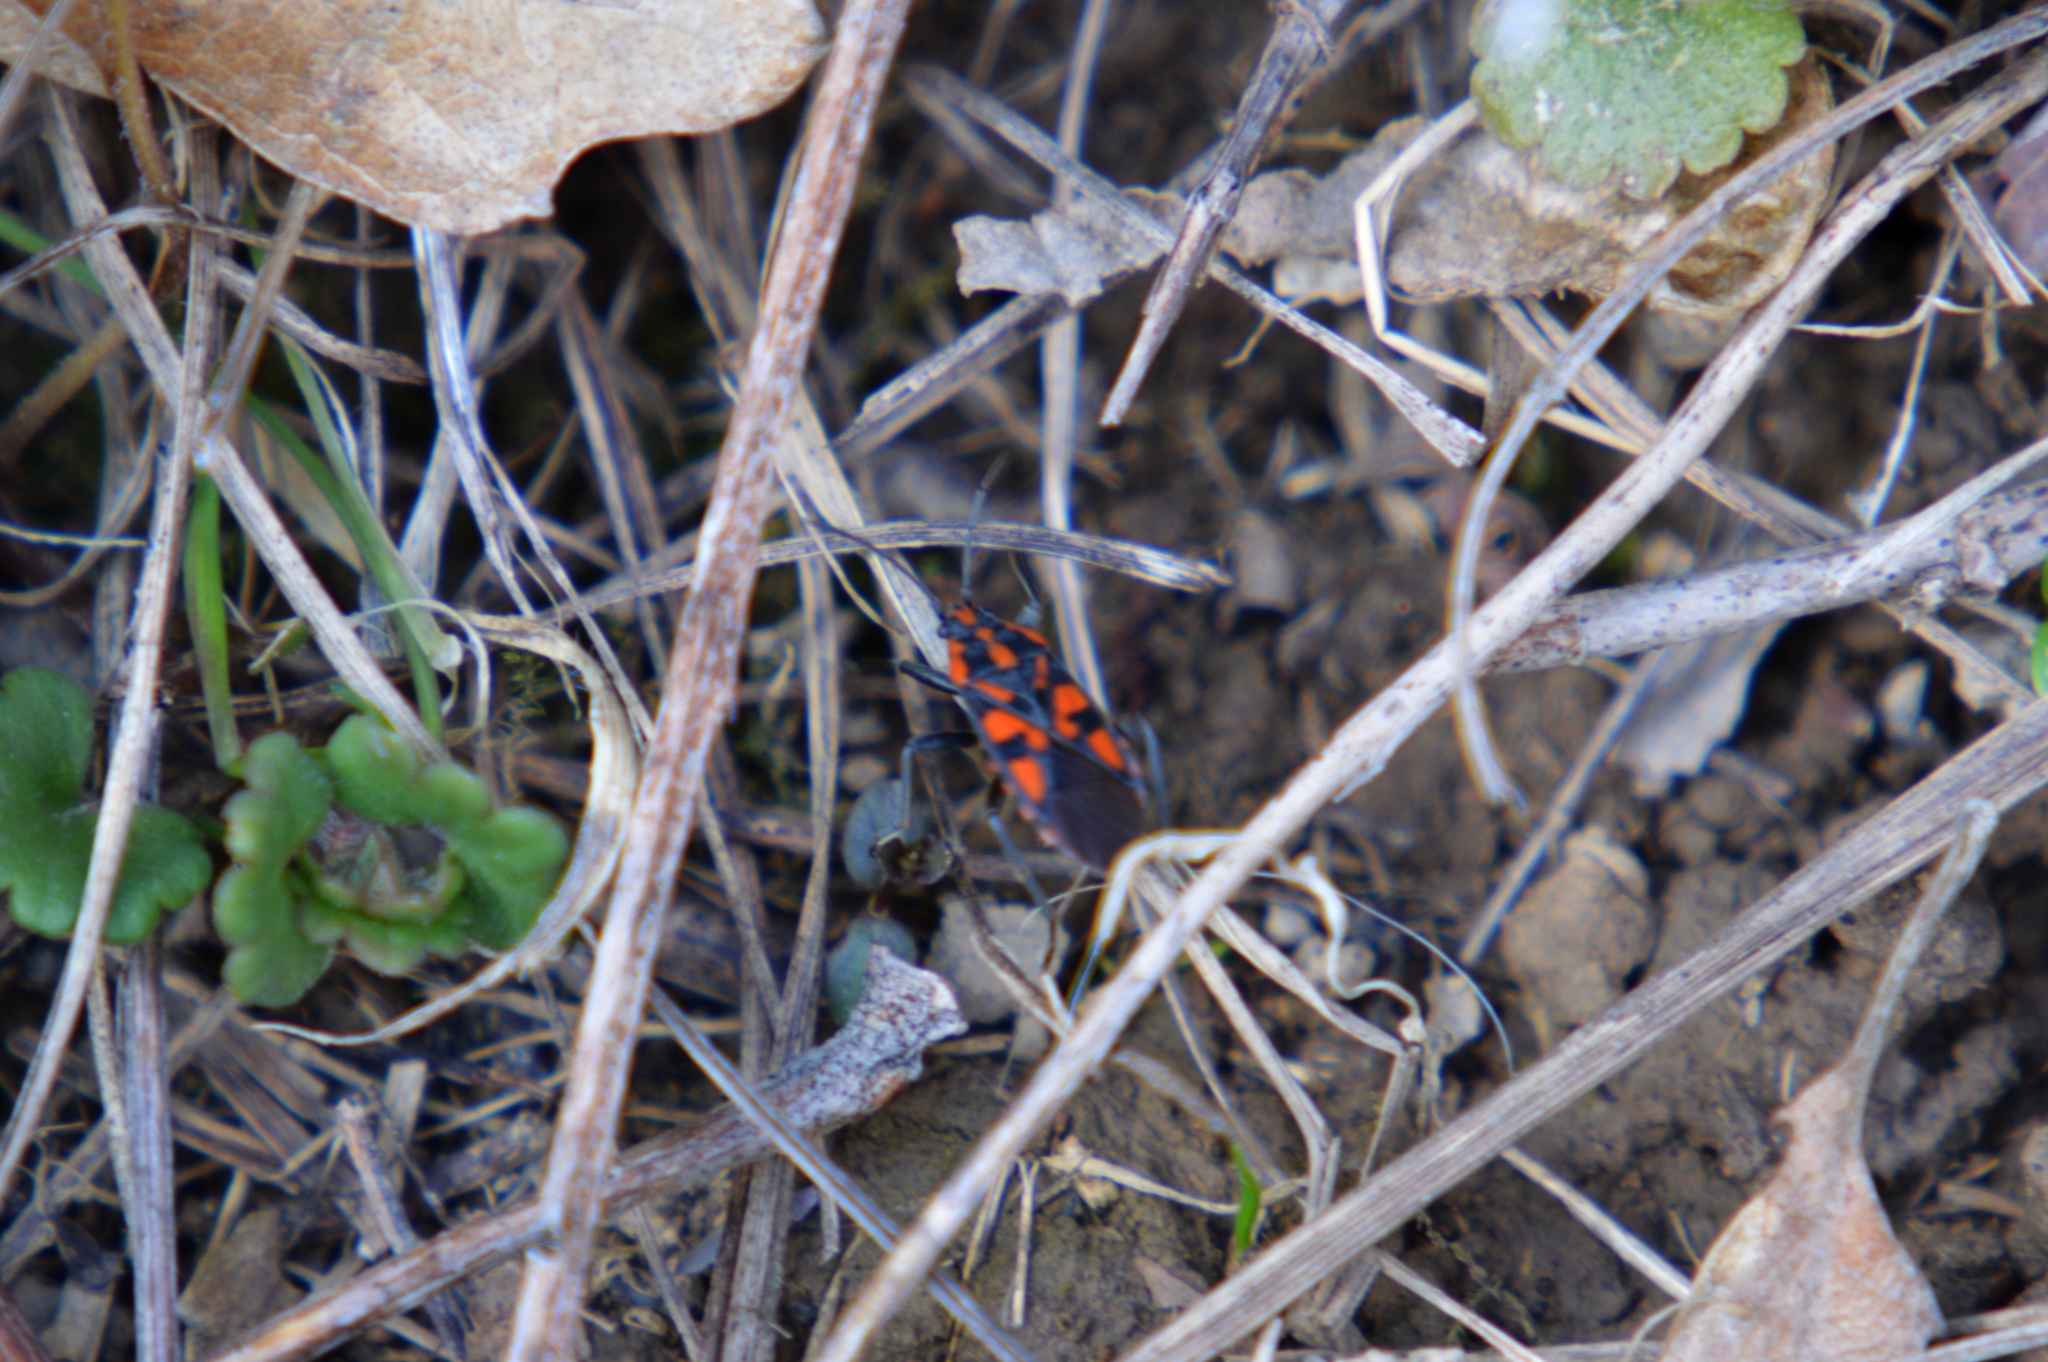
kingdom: Animalia
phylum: Arthropoda
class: Insecta
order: Hemiptera
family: Lygaeidae
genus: Spilostethus
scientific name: Spilostethus saxatilis
